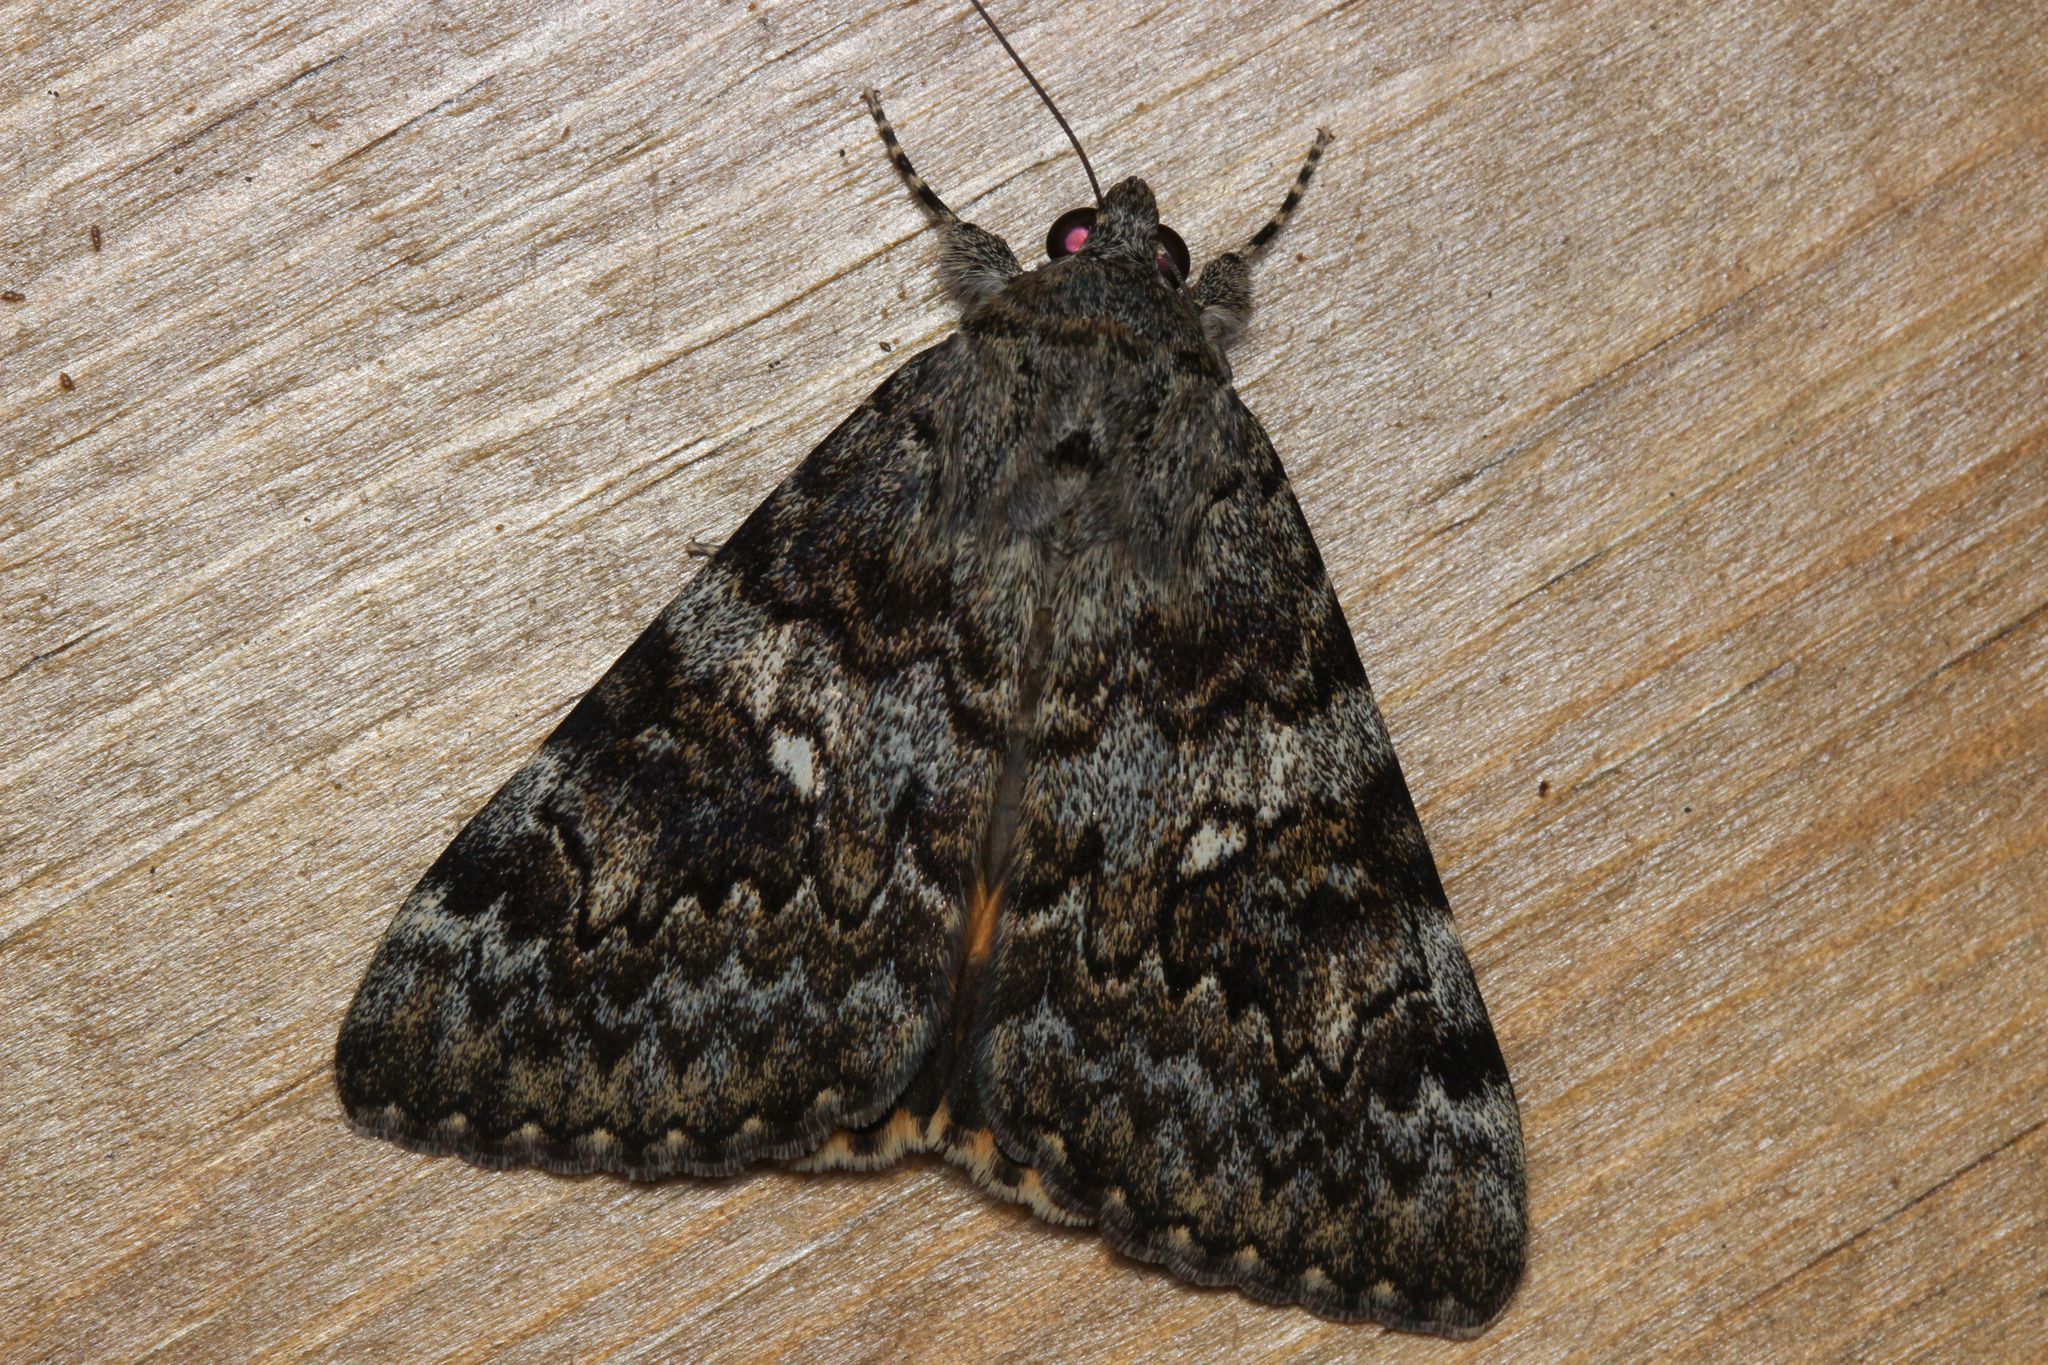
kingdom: Animalia
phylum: Arthropoda
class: Insecta
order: Lepidoptera
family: Erebidae
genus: Catocala
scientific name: Catocala nymphaea
